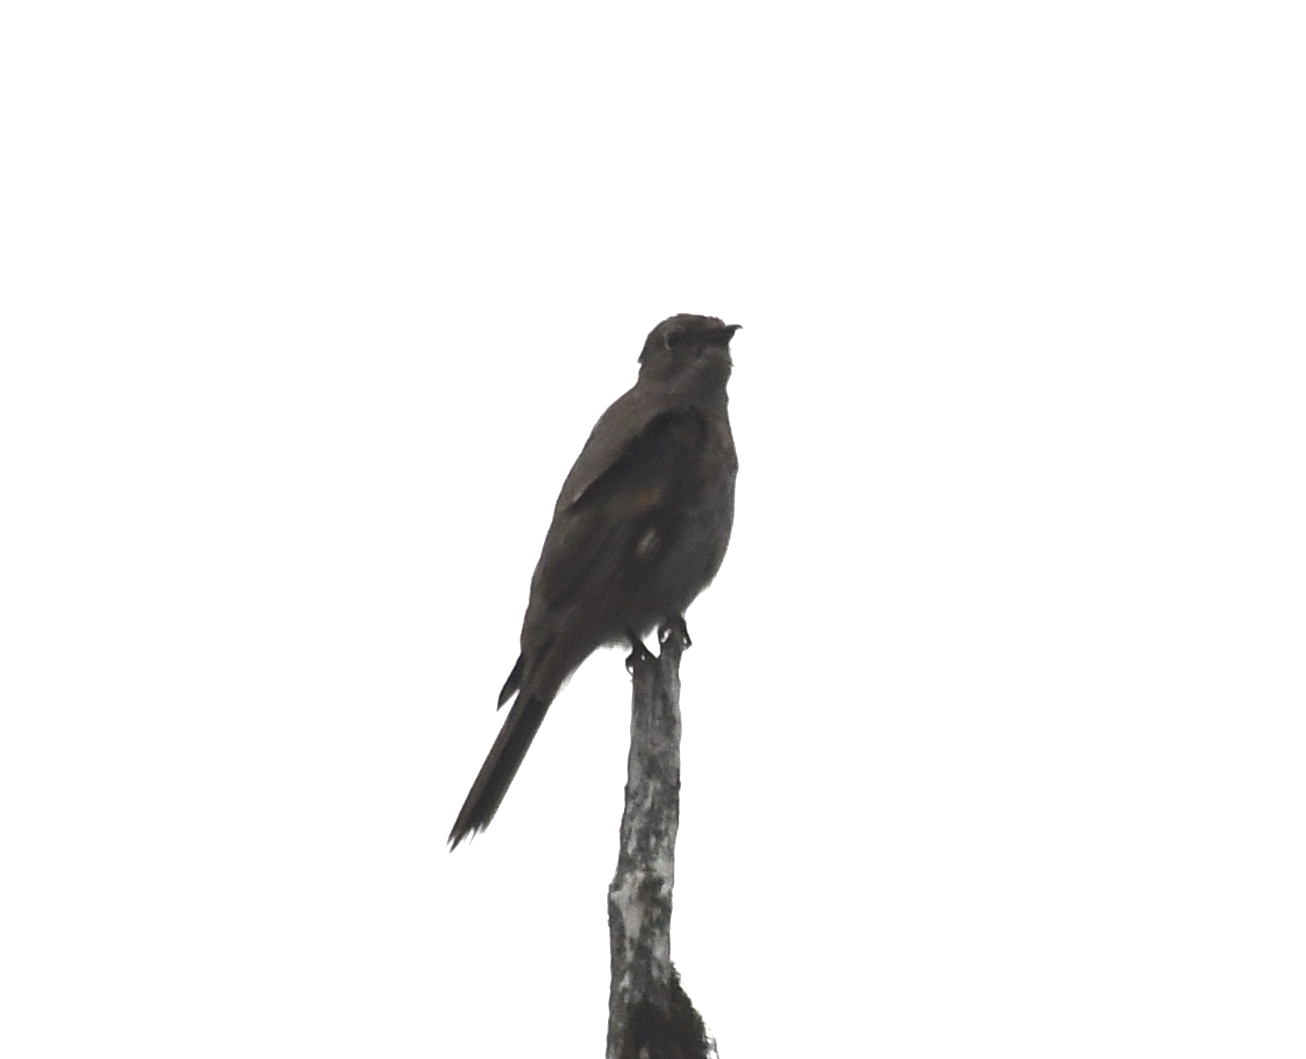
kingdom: Animalia
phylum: Chordata
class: Aves
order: Passeriformes
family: Turdidae
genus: Myadestes
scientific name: Myadestes townsendi
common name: Townsend's solitaire
